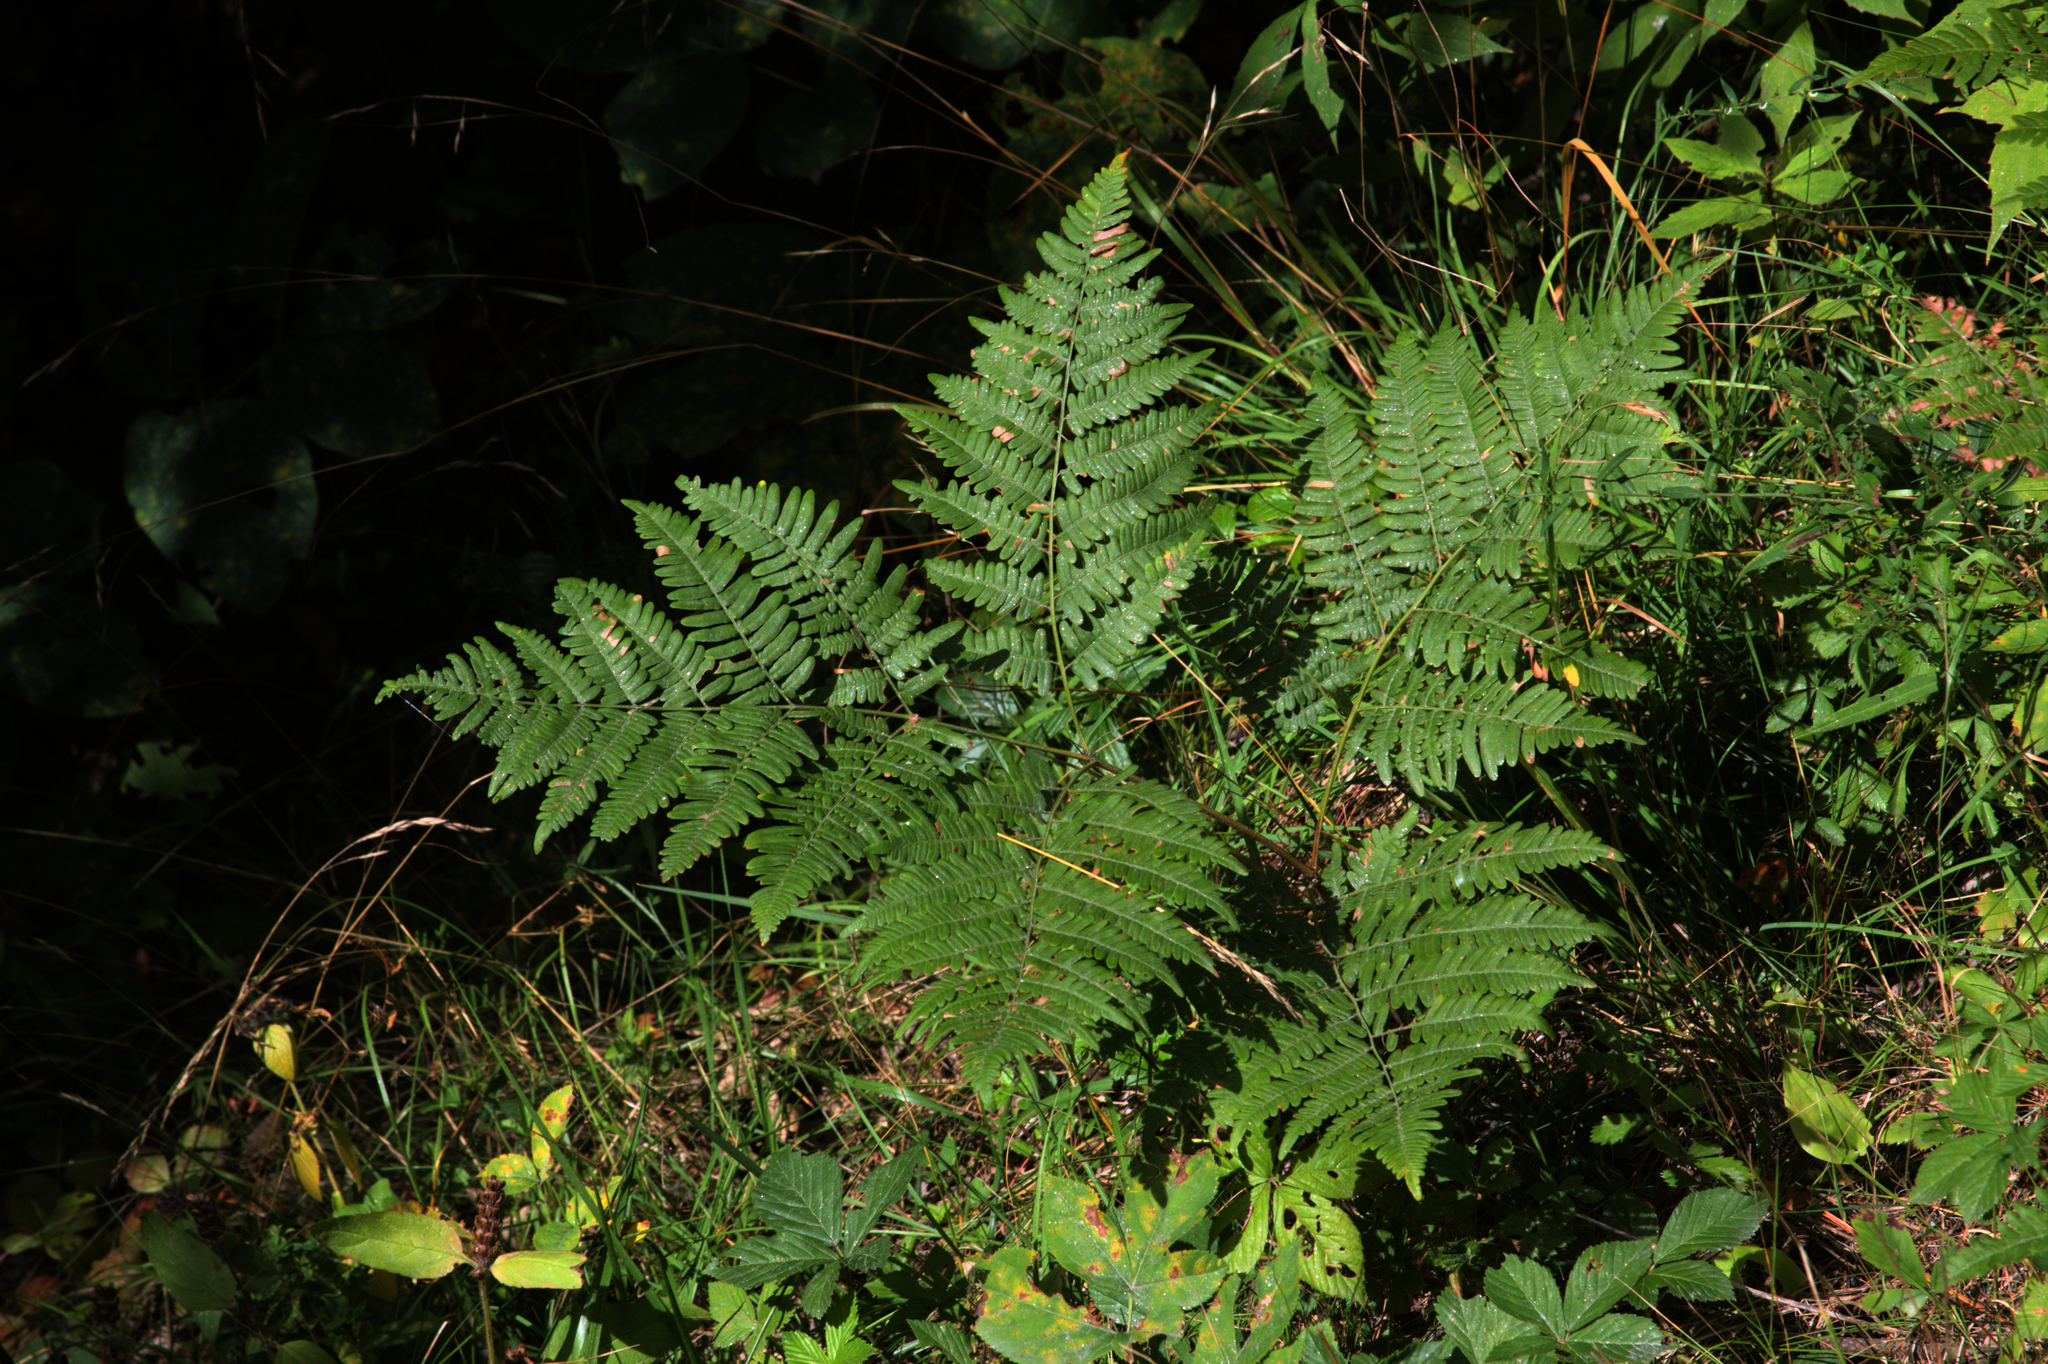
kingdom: Plantae
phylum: Tracheophyta
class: Polypodiopsida
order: Polypodiales
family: Dennstaedtiaceae
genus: Pteridium
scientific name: Pteridium aquilinum
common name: Bracken
